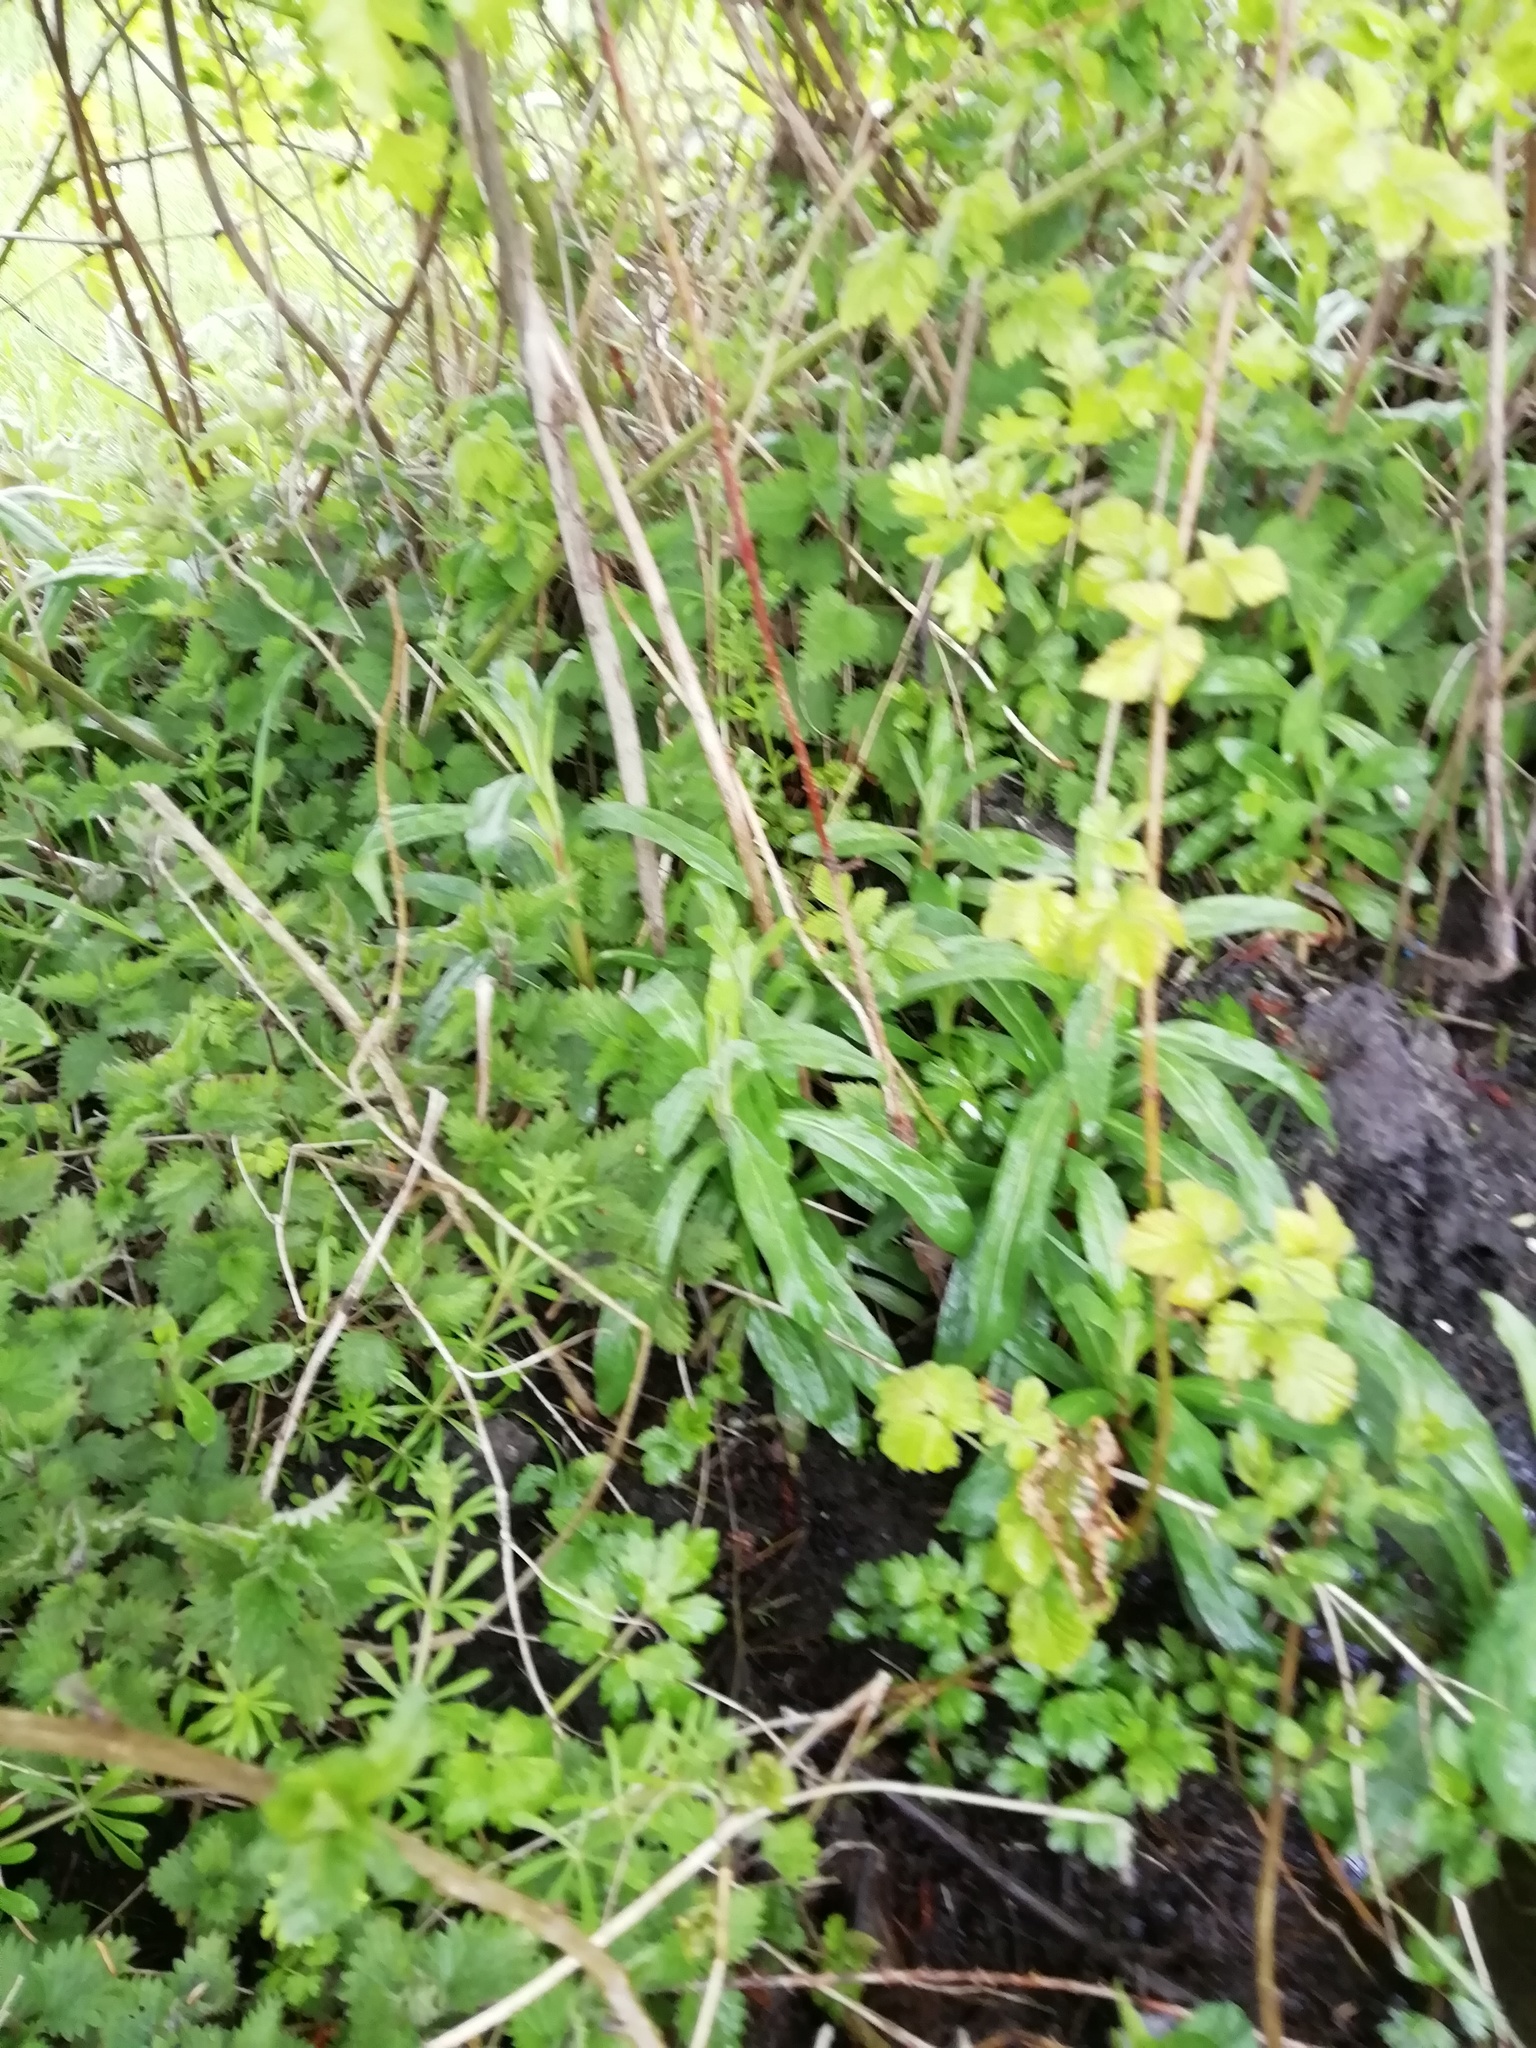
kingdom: Plantae
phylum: Tracheophyta
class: Magnoliopsida
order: Myrtales
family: Onagraceae
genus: Epilobium
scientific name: Epilobium hirsutum
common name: Great willowherb
